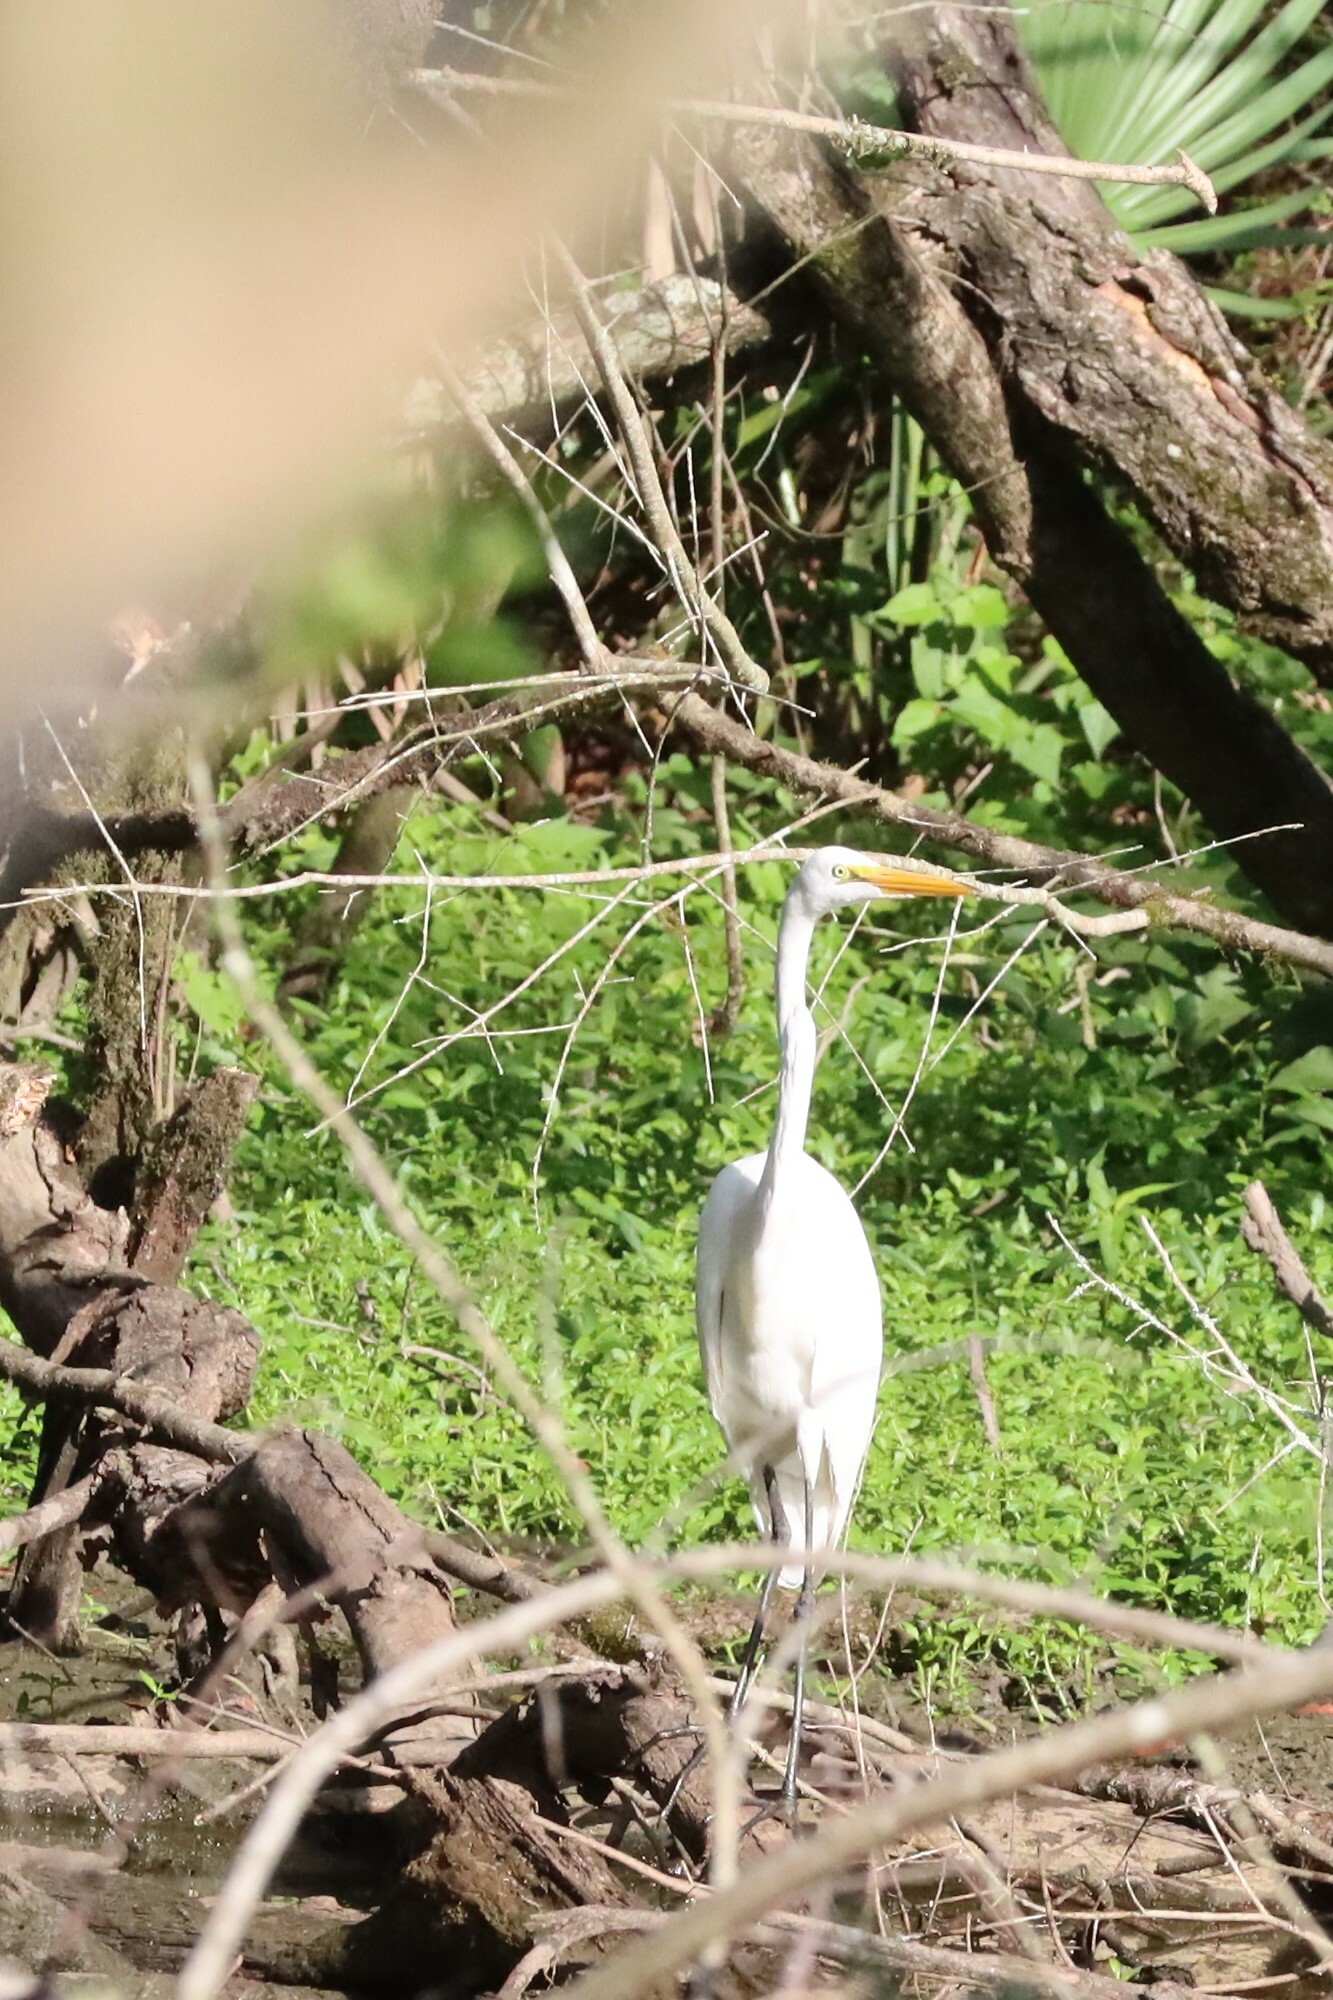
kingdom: Animalia
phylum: Chordata
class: Aves
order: Pelecaniformes
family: Ardeidae
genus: Ardea
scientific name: Ardea alba
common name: Great egret
